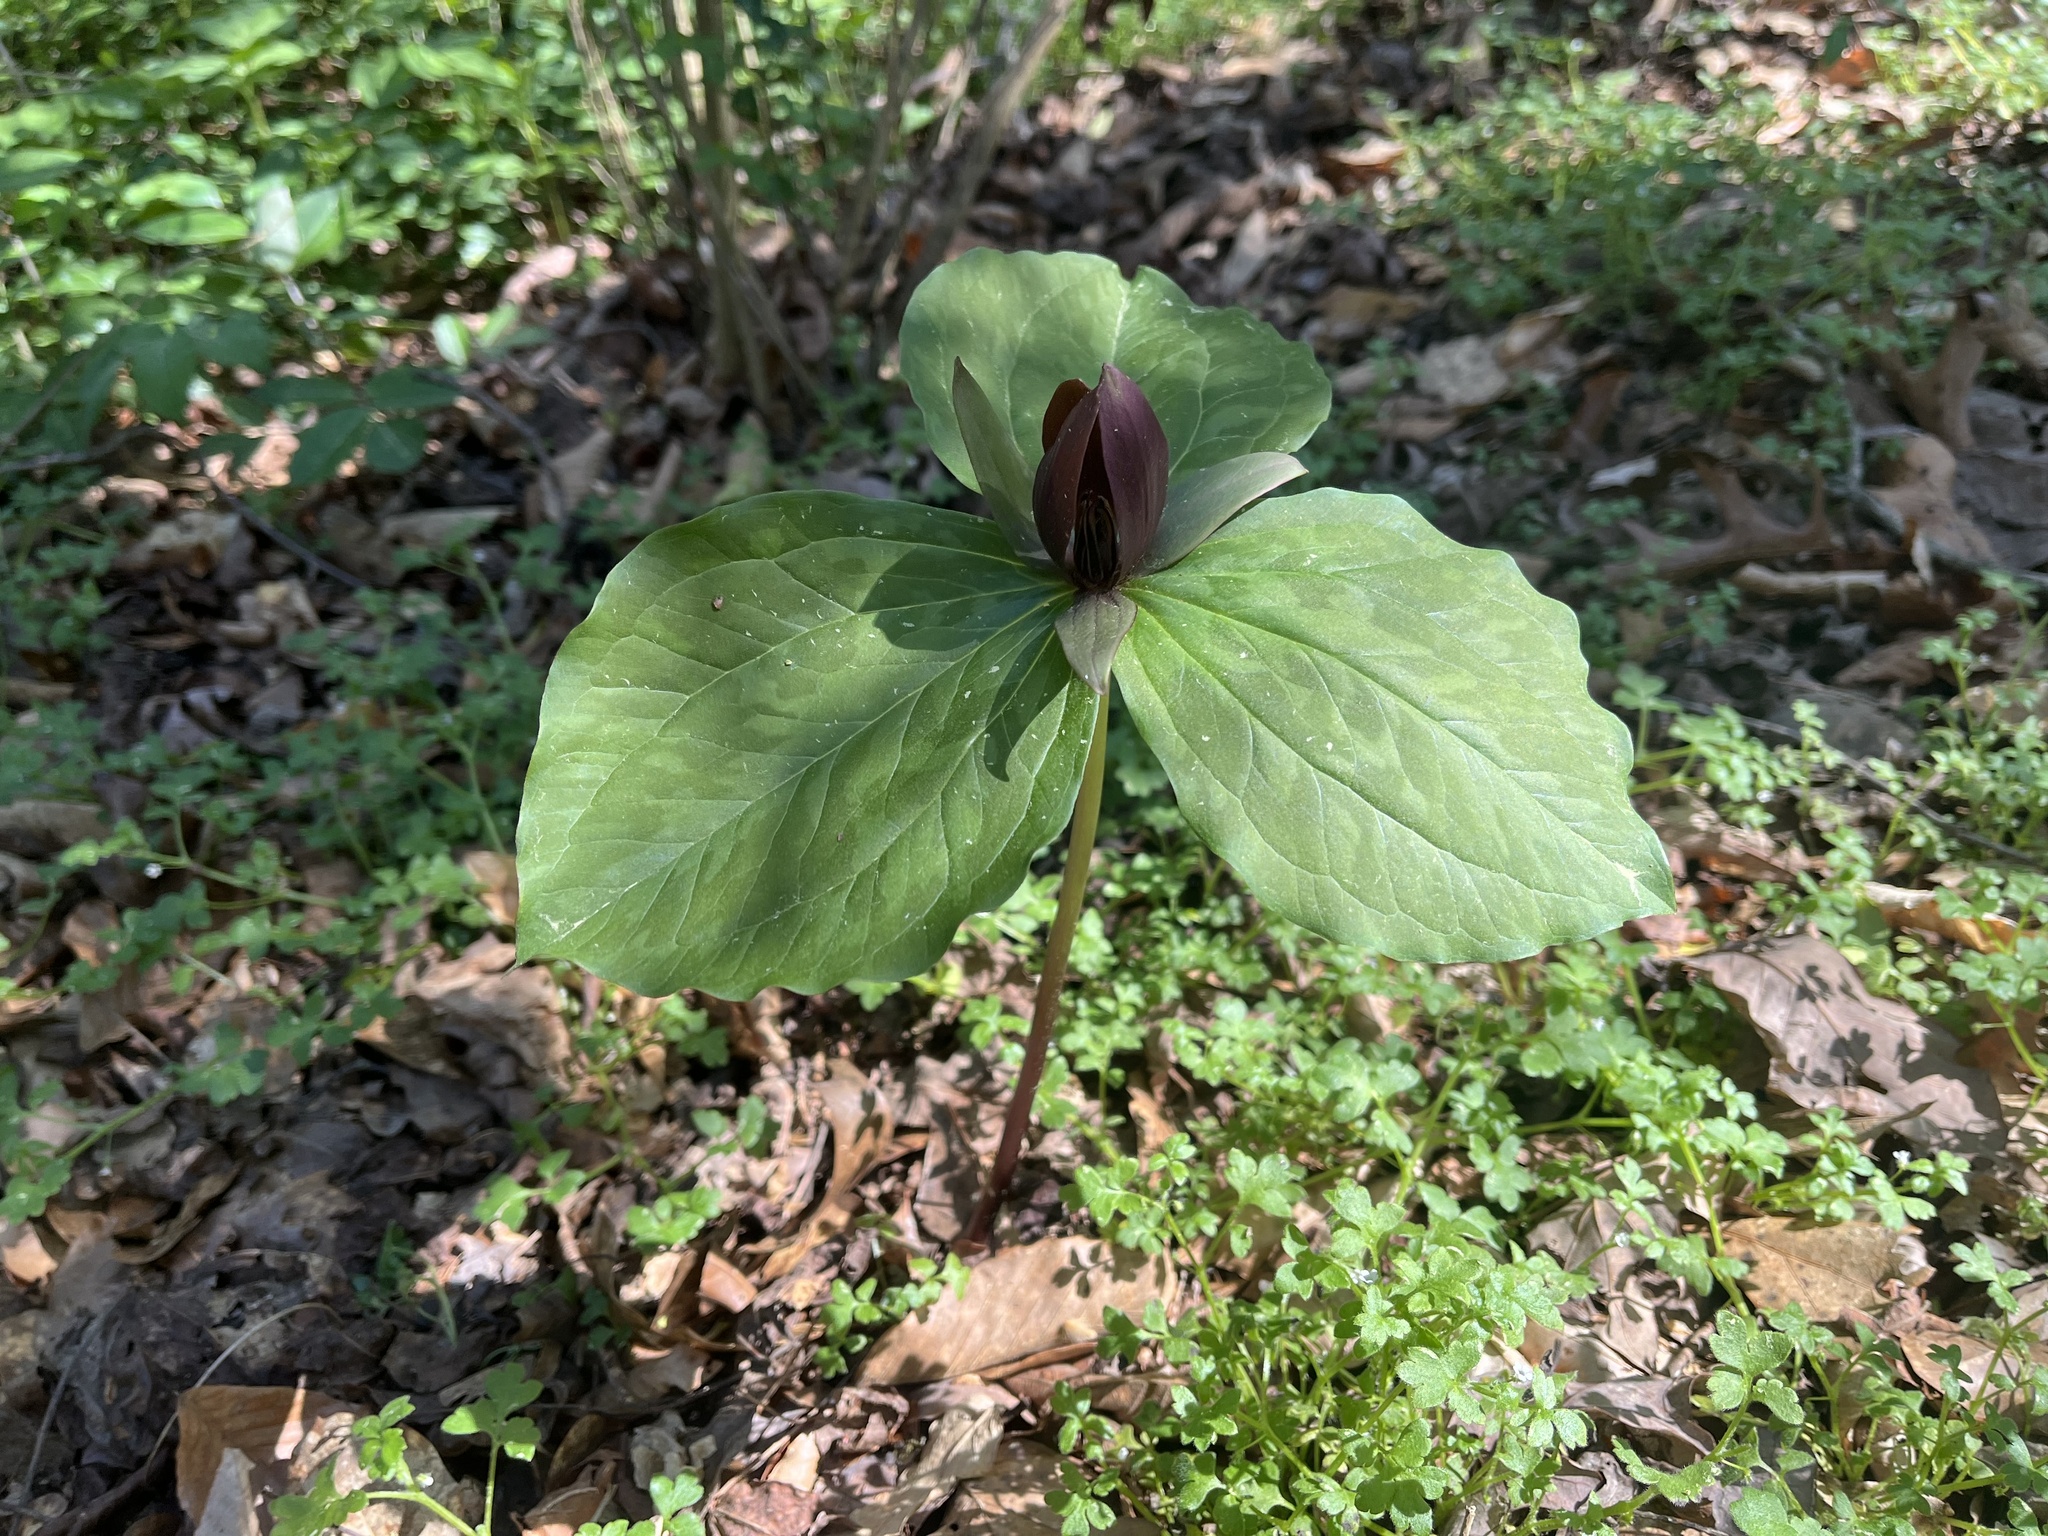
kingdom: Plantae
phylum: Tracheophyta
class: Liliopsida
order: Liliales
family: Melanthiaceae
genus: Trillium
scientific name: Trillium cuneatum
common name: Cuneate trillium
